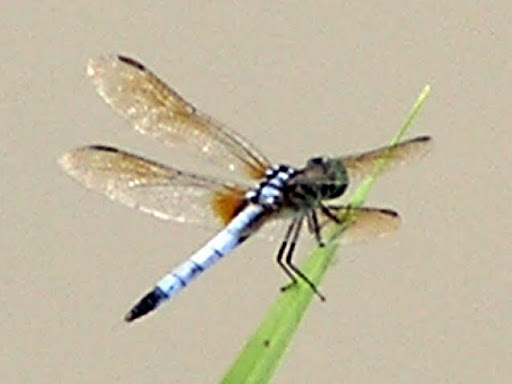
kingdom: Animalia
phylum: Arthropoda
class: Insecta
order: Odonata
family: Libellulidae
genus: Pachydiplax
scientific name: Pachydiplax longipennis
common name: Blue dasher
